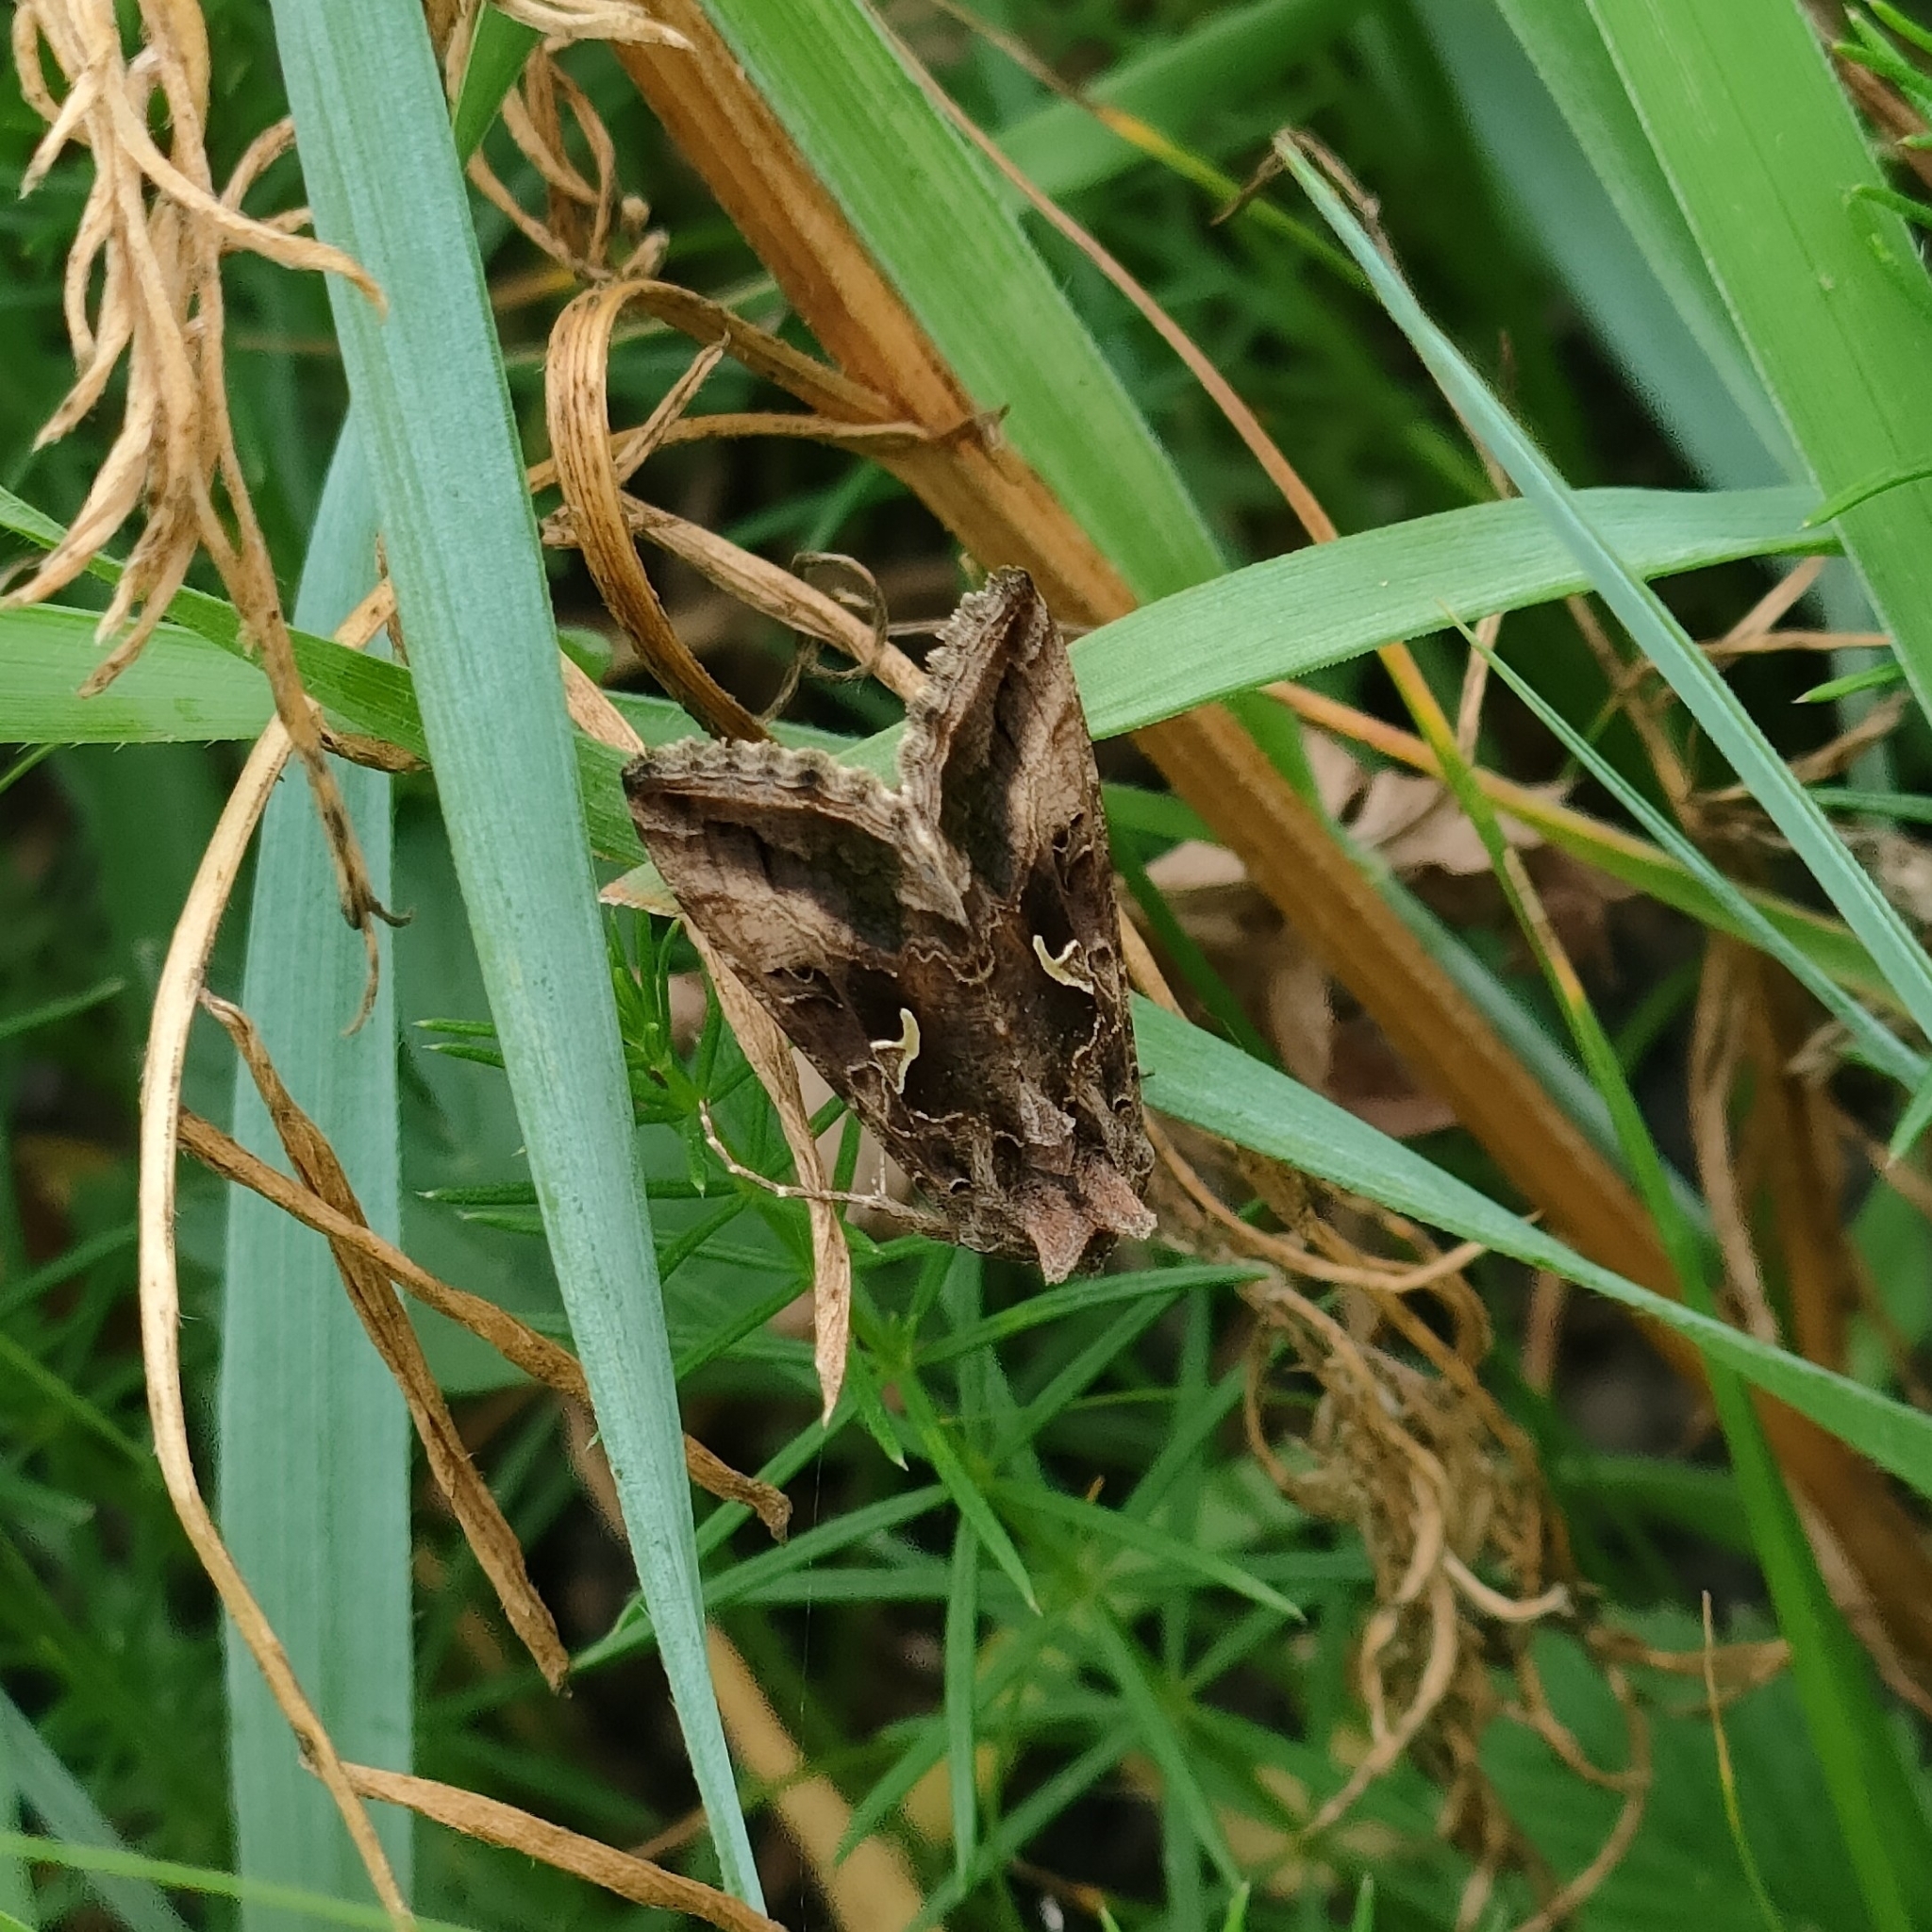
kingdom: Animalia
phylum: Arthropoda
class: Insecta
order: Lepidoptera
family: Noctuidae
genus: Autographa
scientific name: Autographa gamma
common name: Silver y
